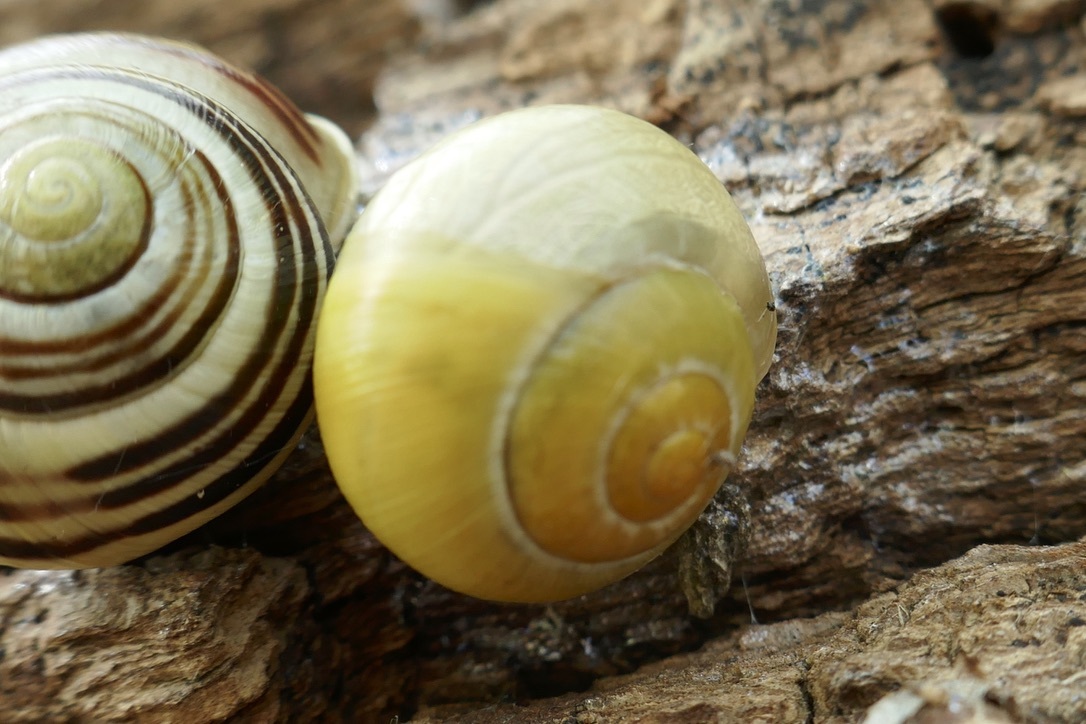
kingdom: Animalia
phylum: Mollusca
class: Gastropoda
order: Stylommatophora
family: Helicidae
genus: Cepaea
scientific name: Cepaea hortensis
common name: White-lip gardensnail
